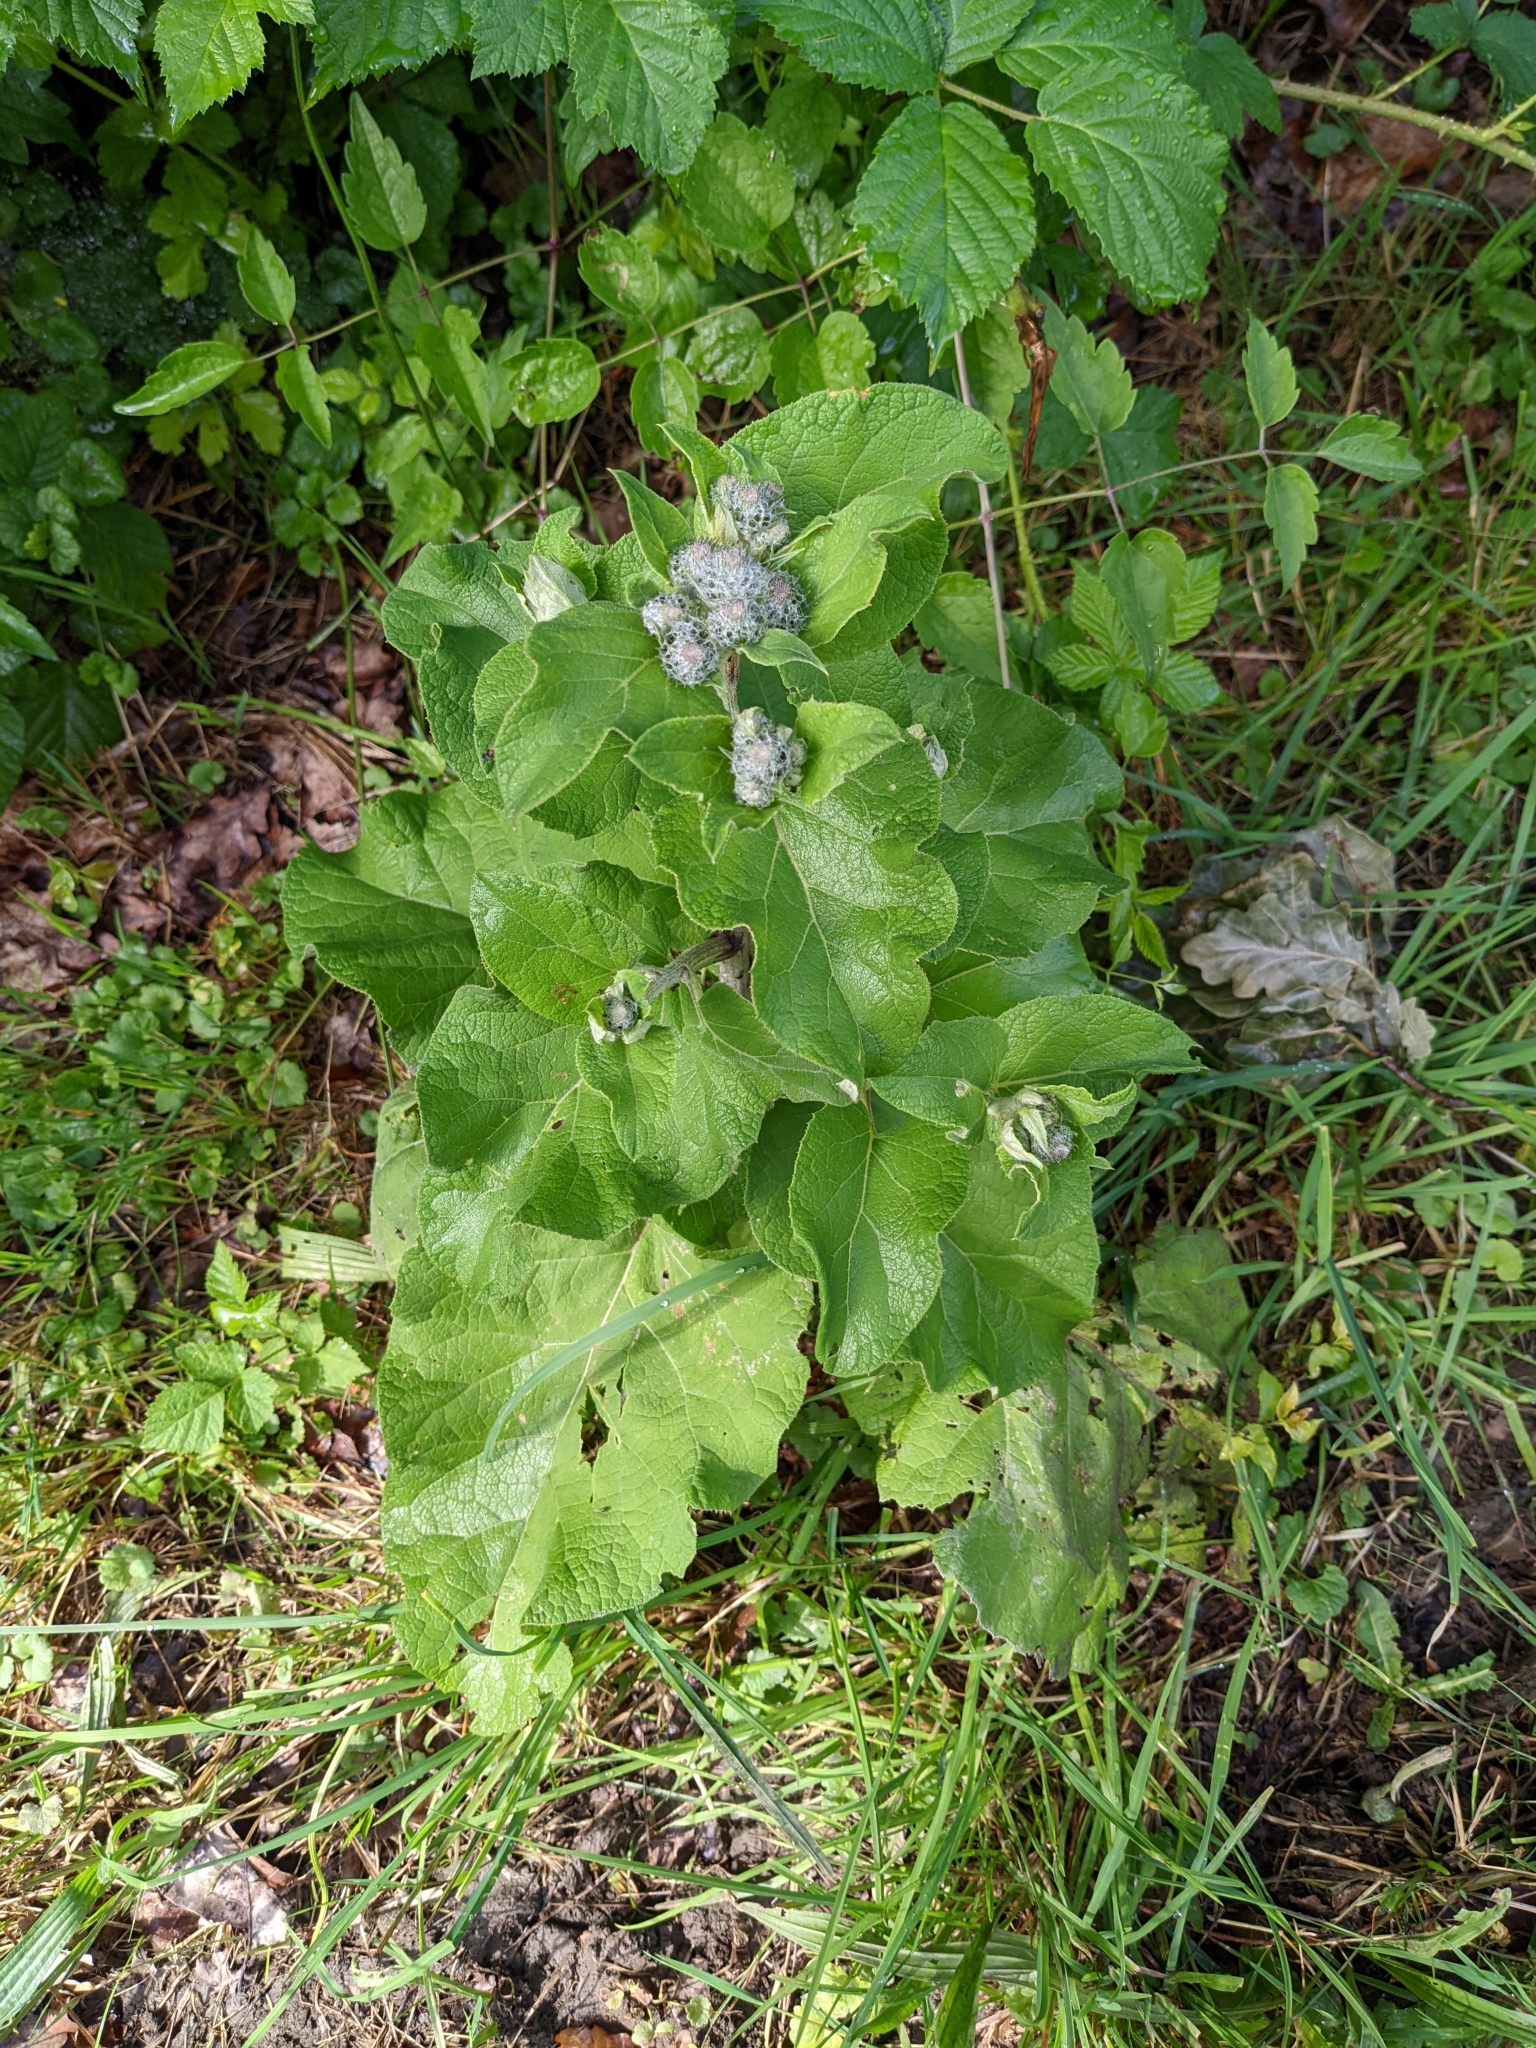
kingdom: Plantae
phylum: Tracheophyta
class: Magnoliopsida
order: Asterales
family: Asteraceae
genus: Arctium
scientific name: Arctium tomentosum
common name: Woolly burdock
